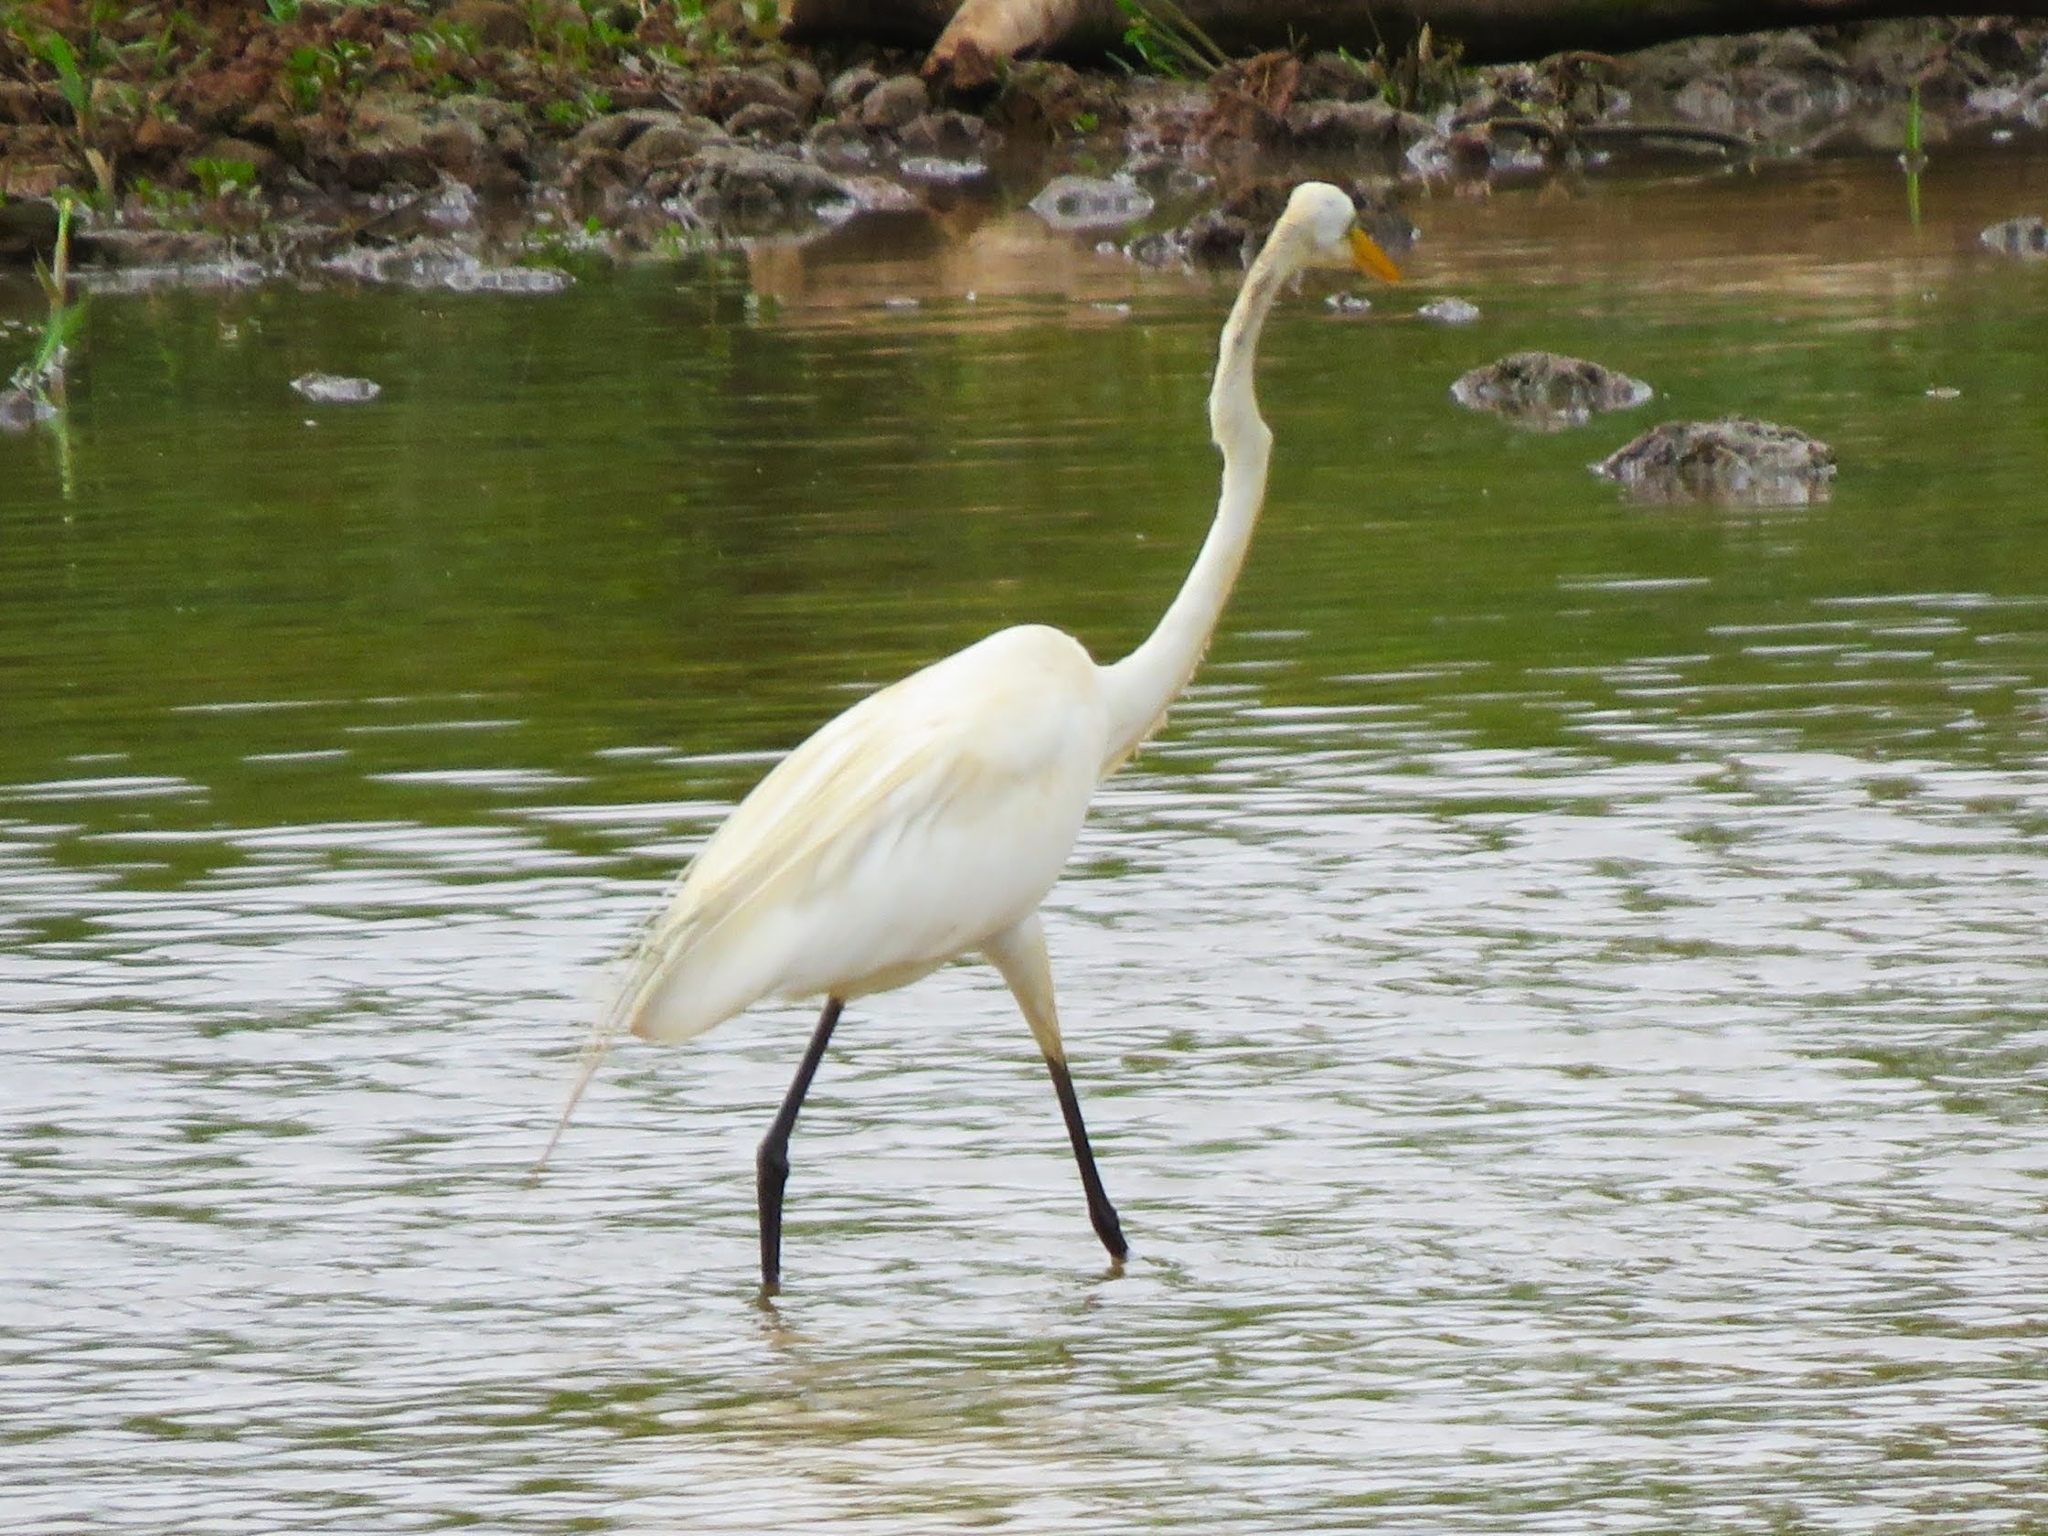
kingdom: Animalia
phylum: Chordata
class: Aves
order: Pelecaniformes
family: Ardeidae
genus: Ardea
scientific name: Ardea alba
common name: Great egret
